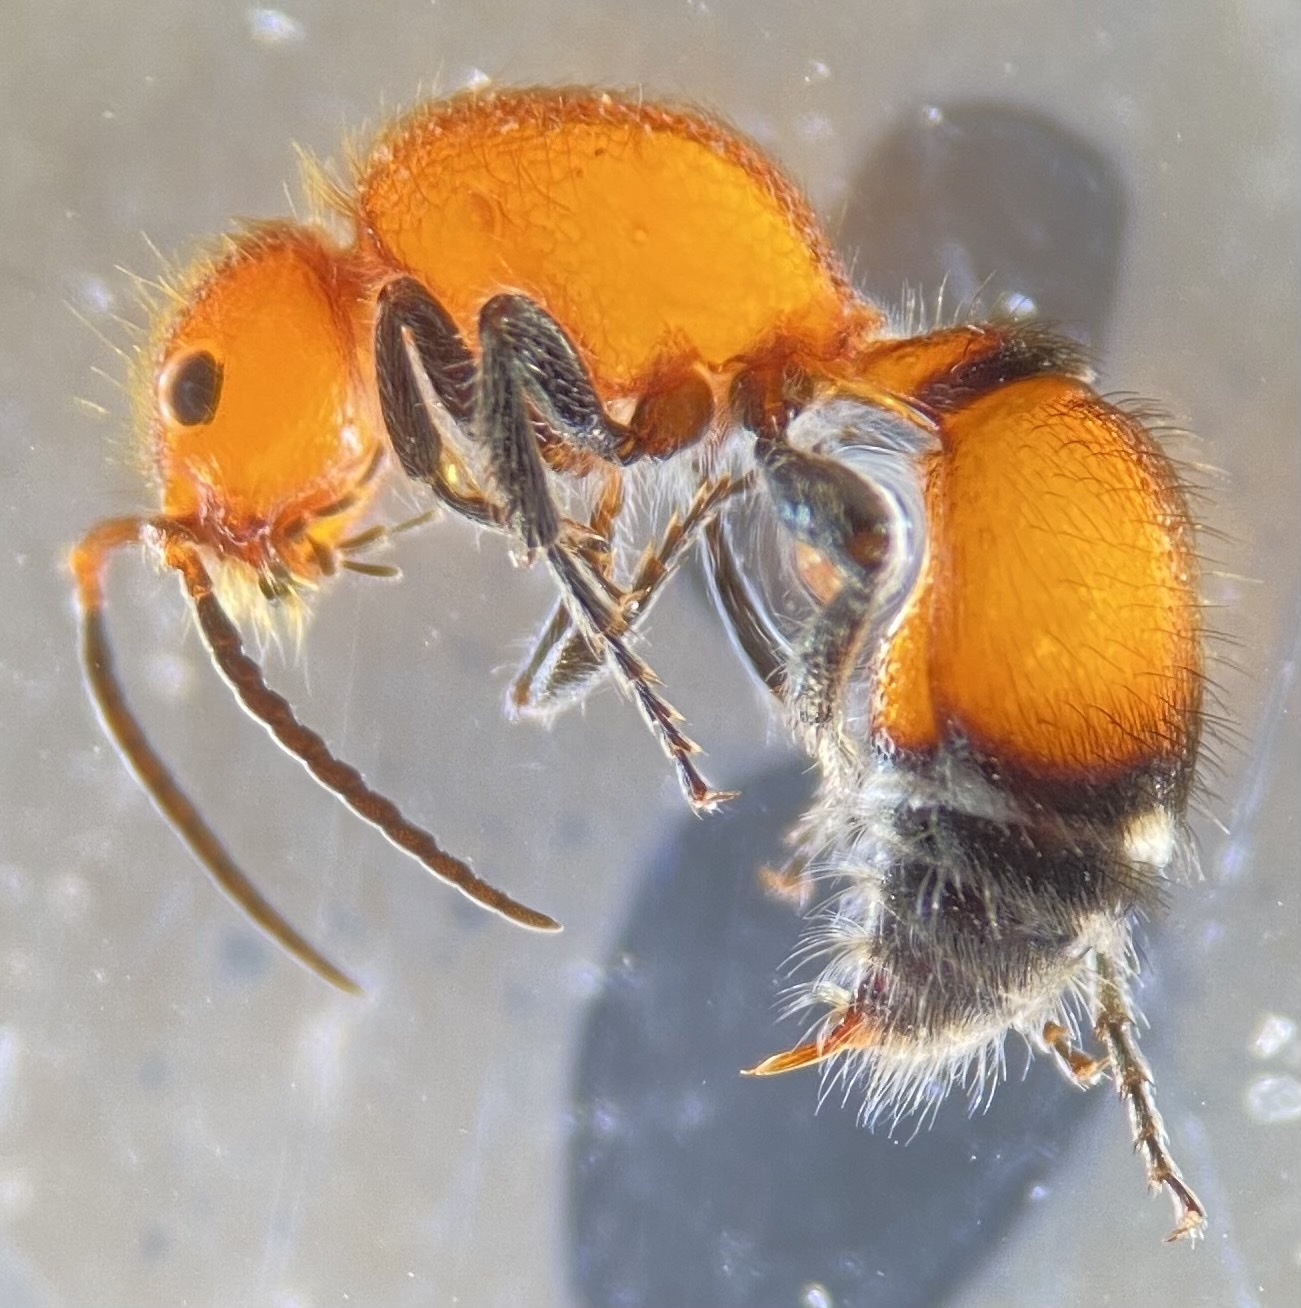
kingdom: Animalia
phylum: Arthropoda
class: Insecta
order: Hymenoptera
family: Mutillidae
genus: Sphaeropthalma
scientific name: Sphaeropthalma
